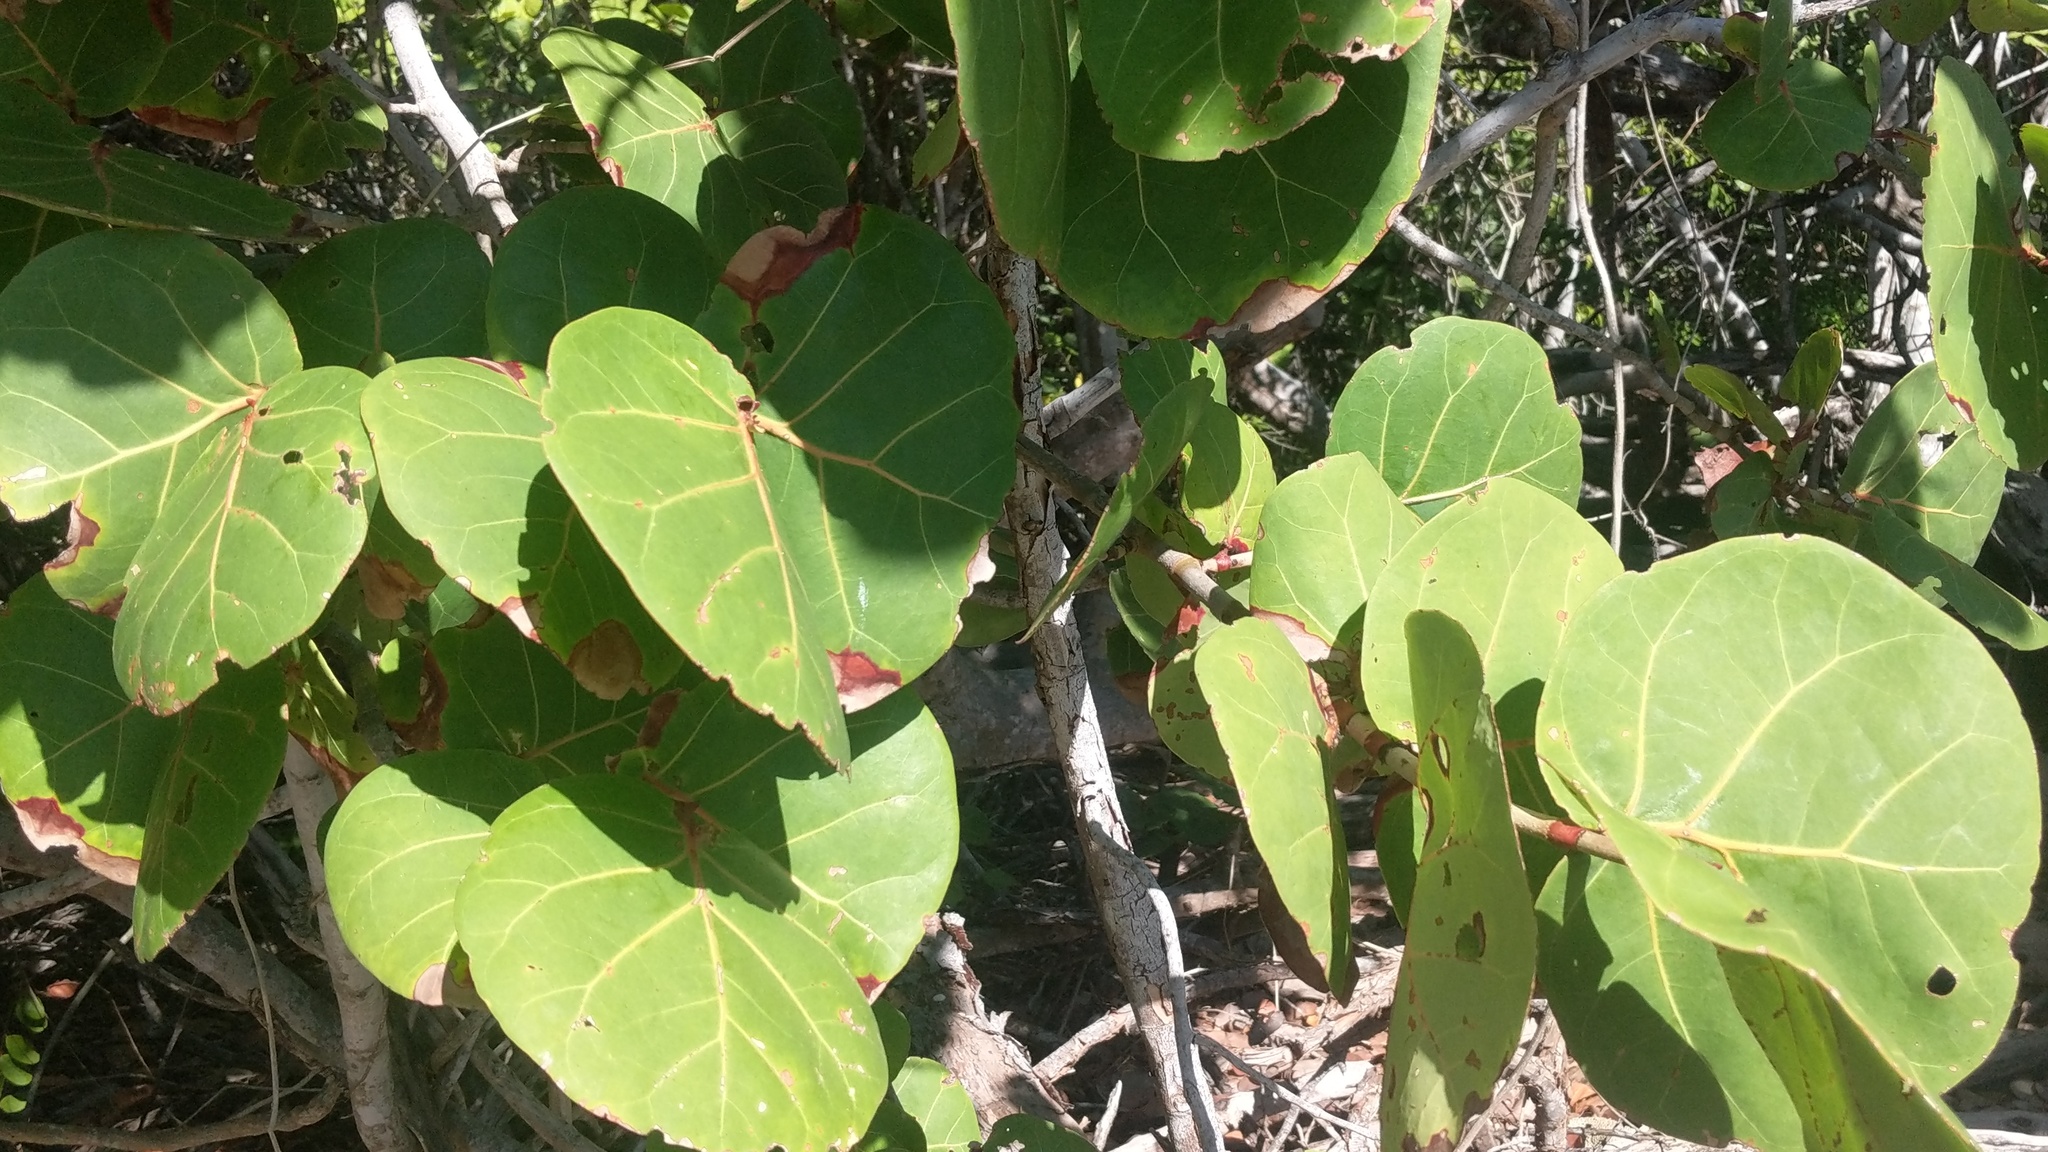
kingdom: Plantae
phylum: Tracheophyta
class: Magnoliopsida
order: Caryophyllales
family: Polygonaceae
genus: Coccoloba
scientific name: Coccoloba uvifera
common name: Seagrape
